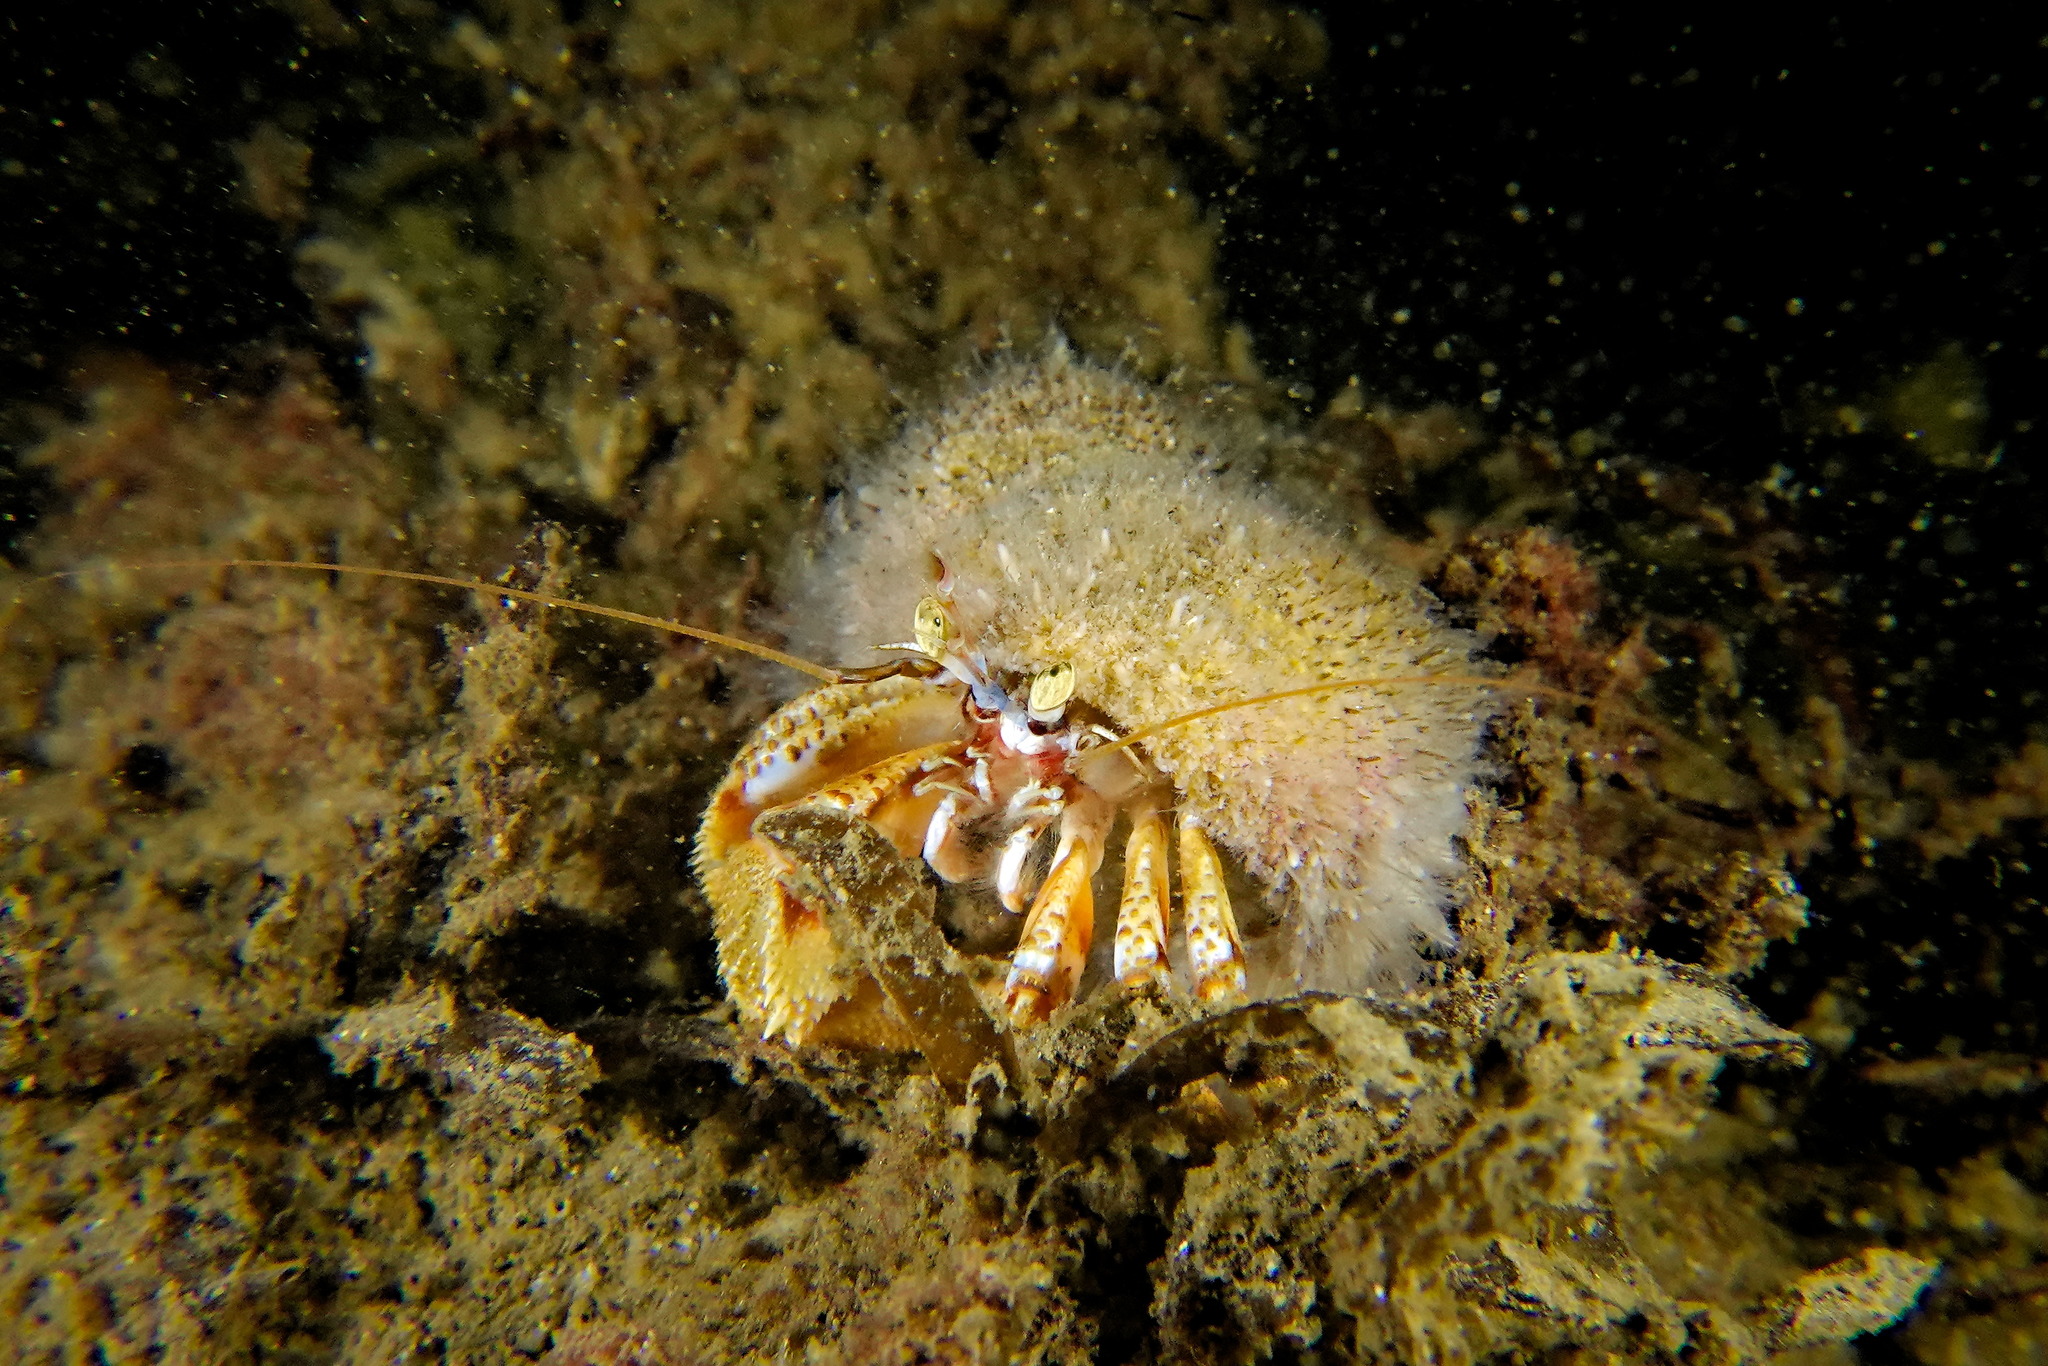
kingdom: Animalia
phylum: Arthropoda
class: Malacostraca
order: Decapoda
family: Paguridae
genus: Pagurus
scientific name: Pagurus bernhardus
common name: Hermit crab
